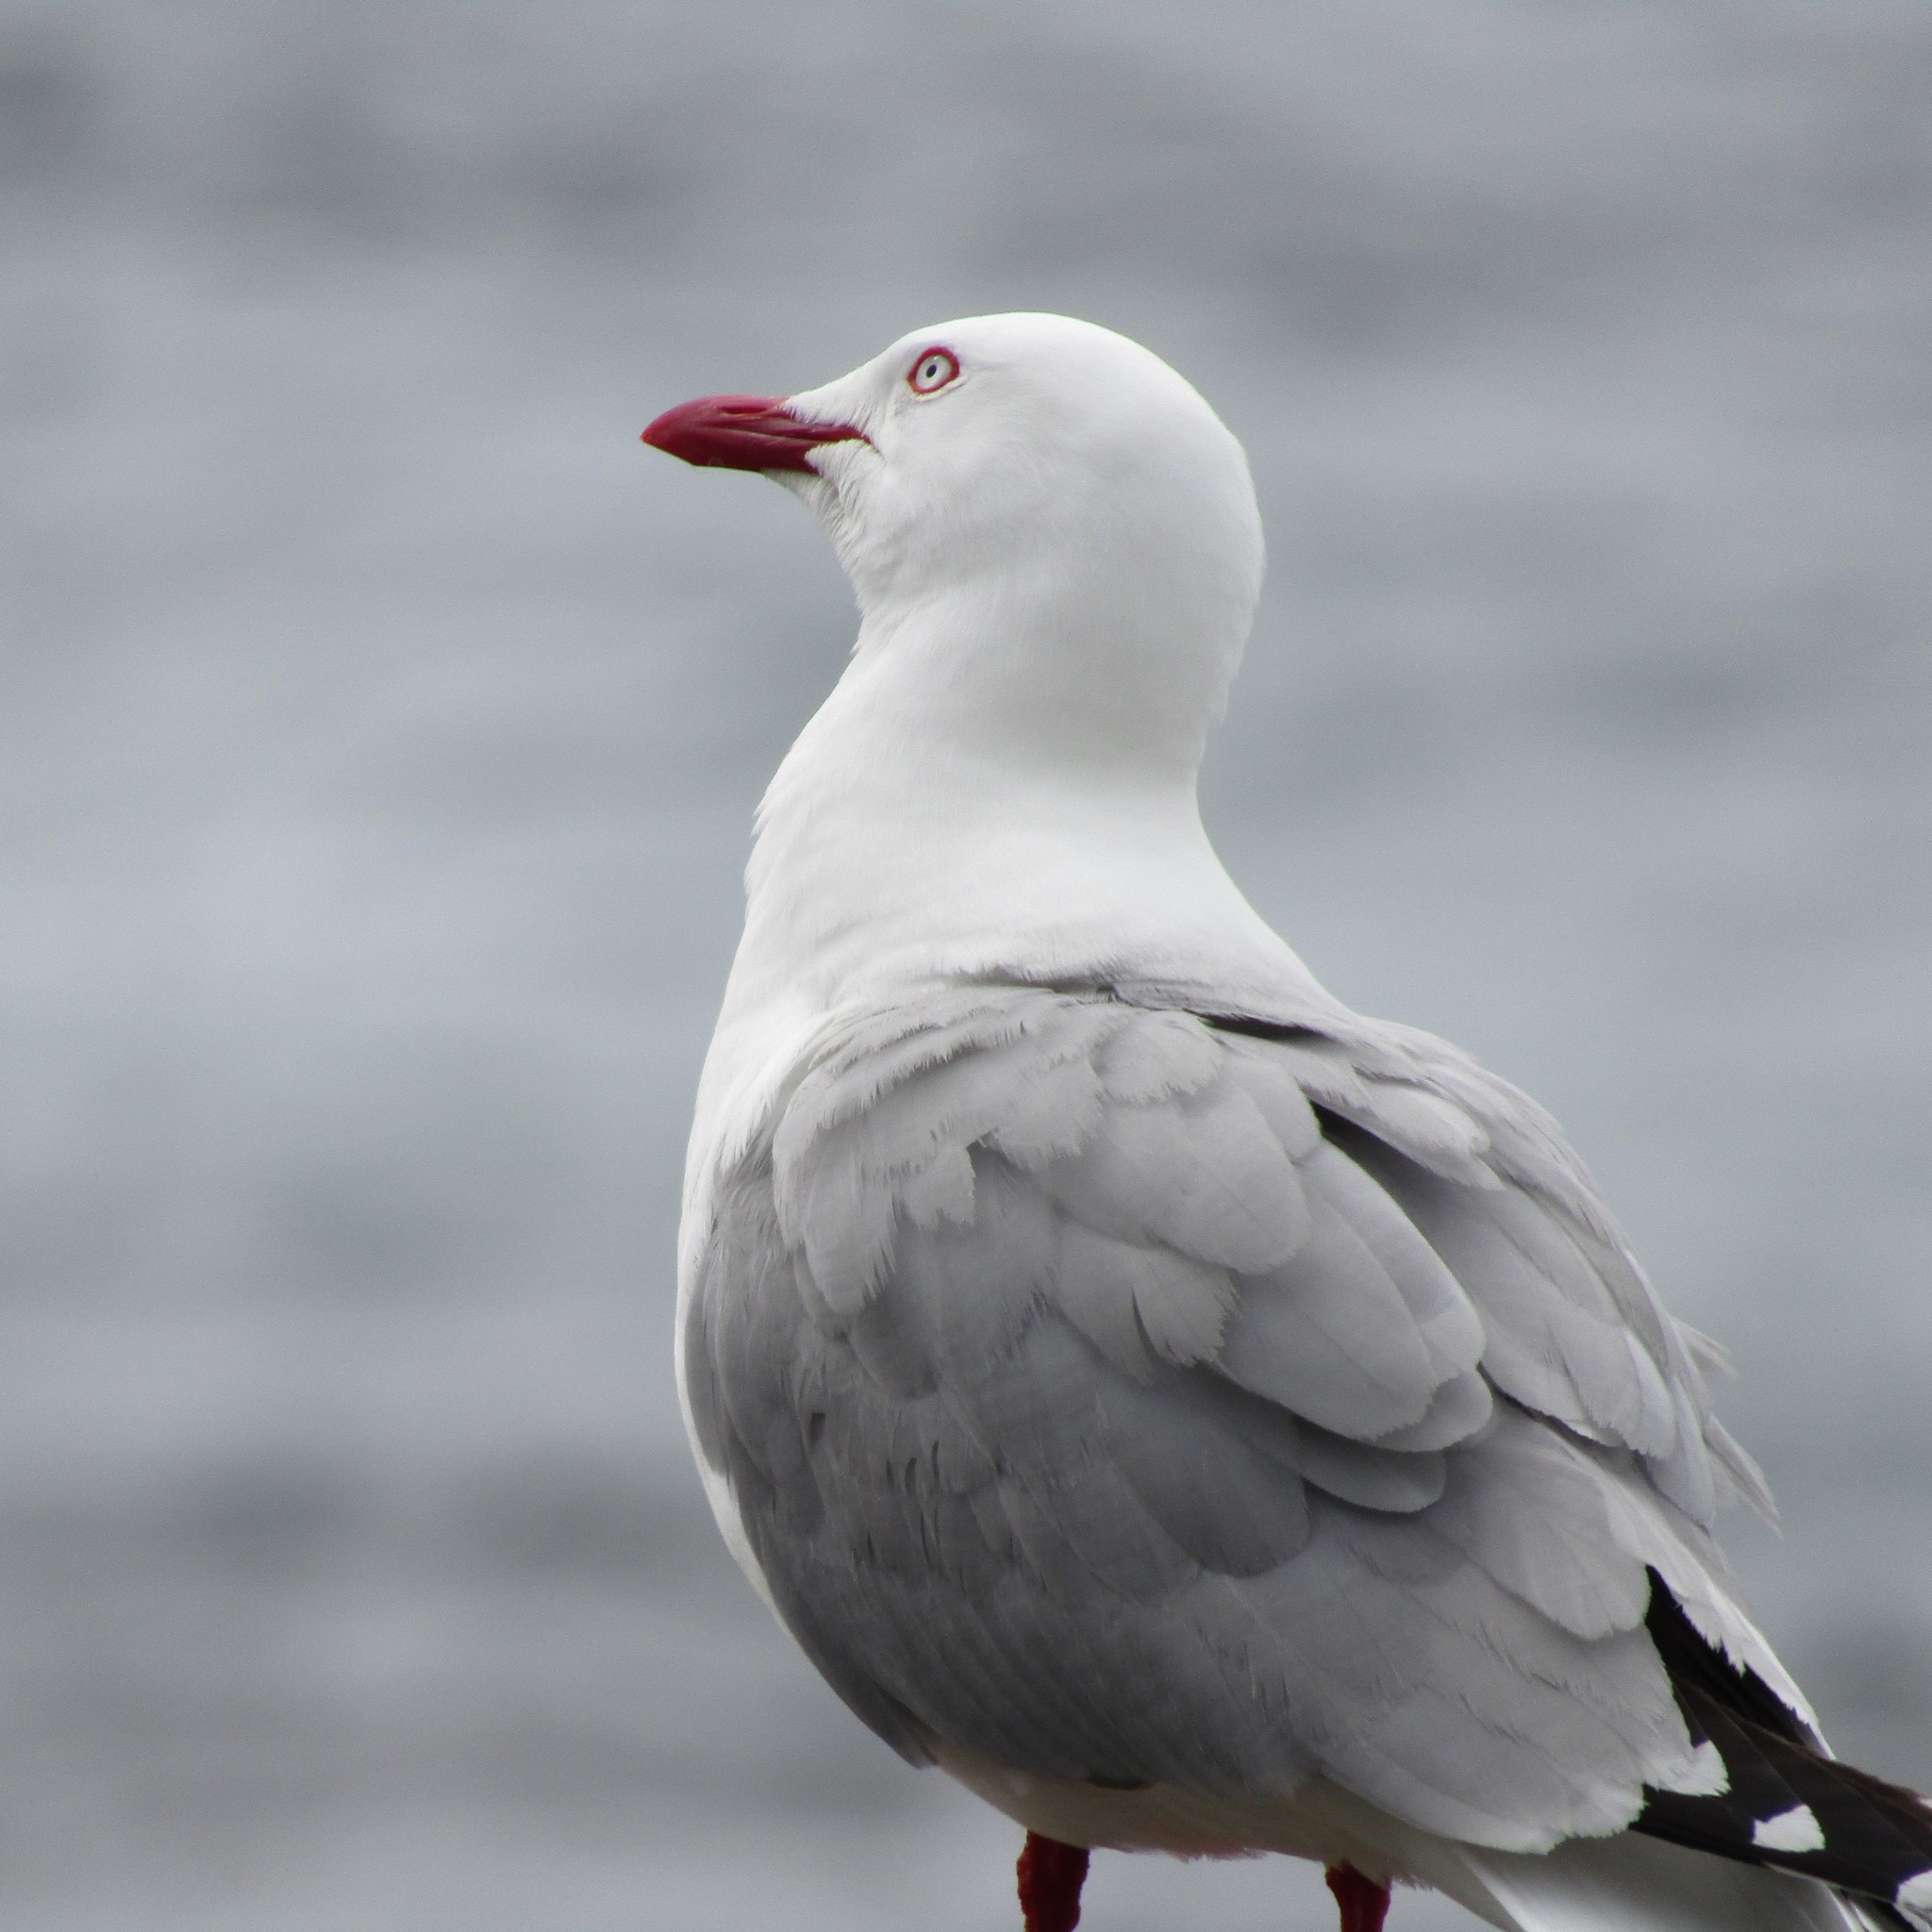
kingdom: Animalia
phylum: Chordata
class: Aves
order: Charadriiformes
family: Laridae
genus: Chroicocephalus
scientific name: Chroicocephalus novaehollandiae
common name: Silver gull
